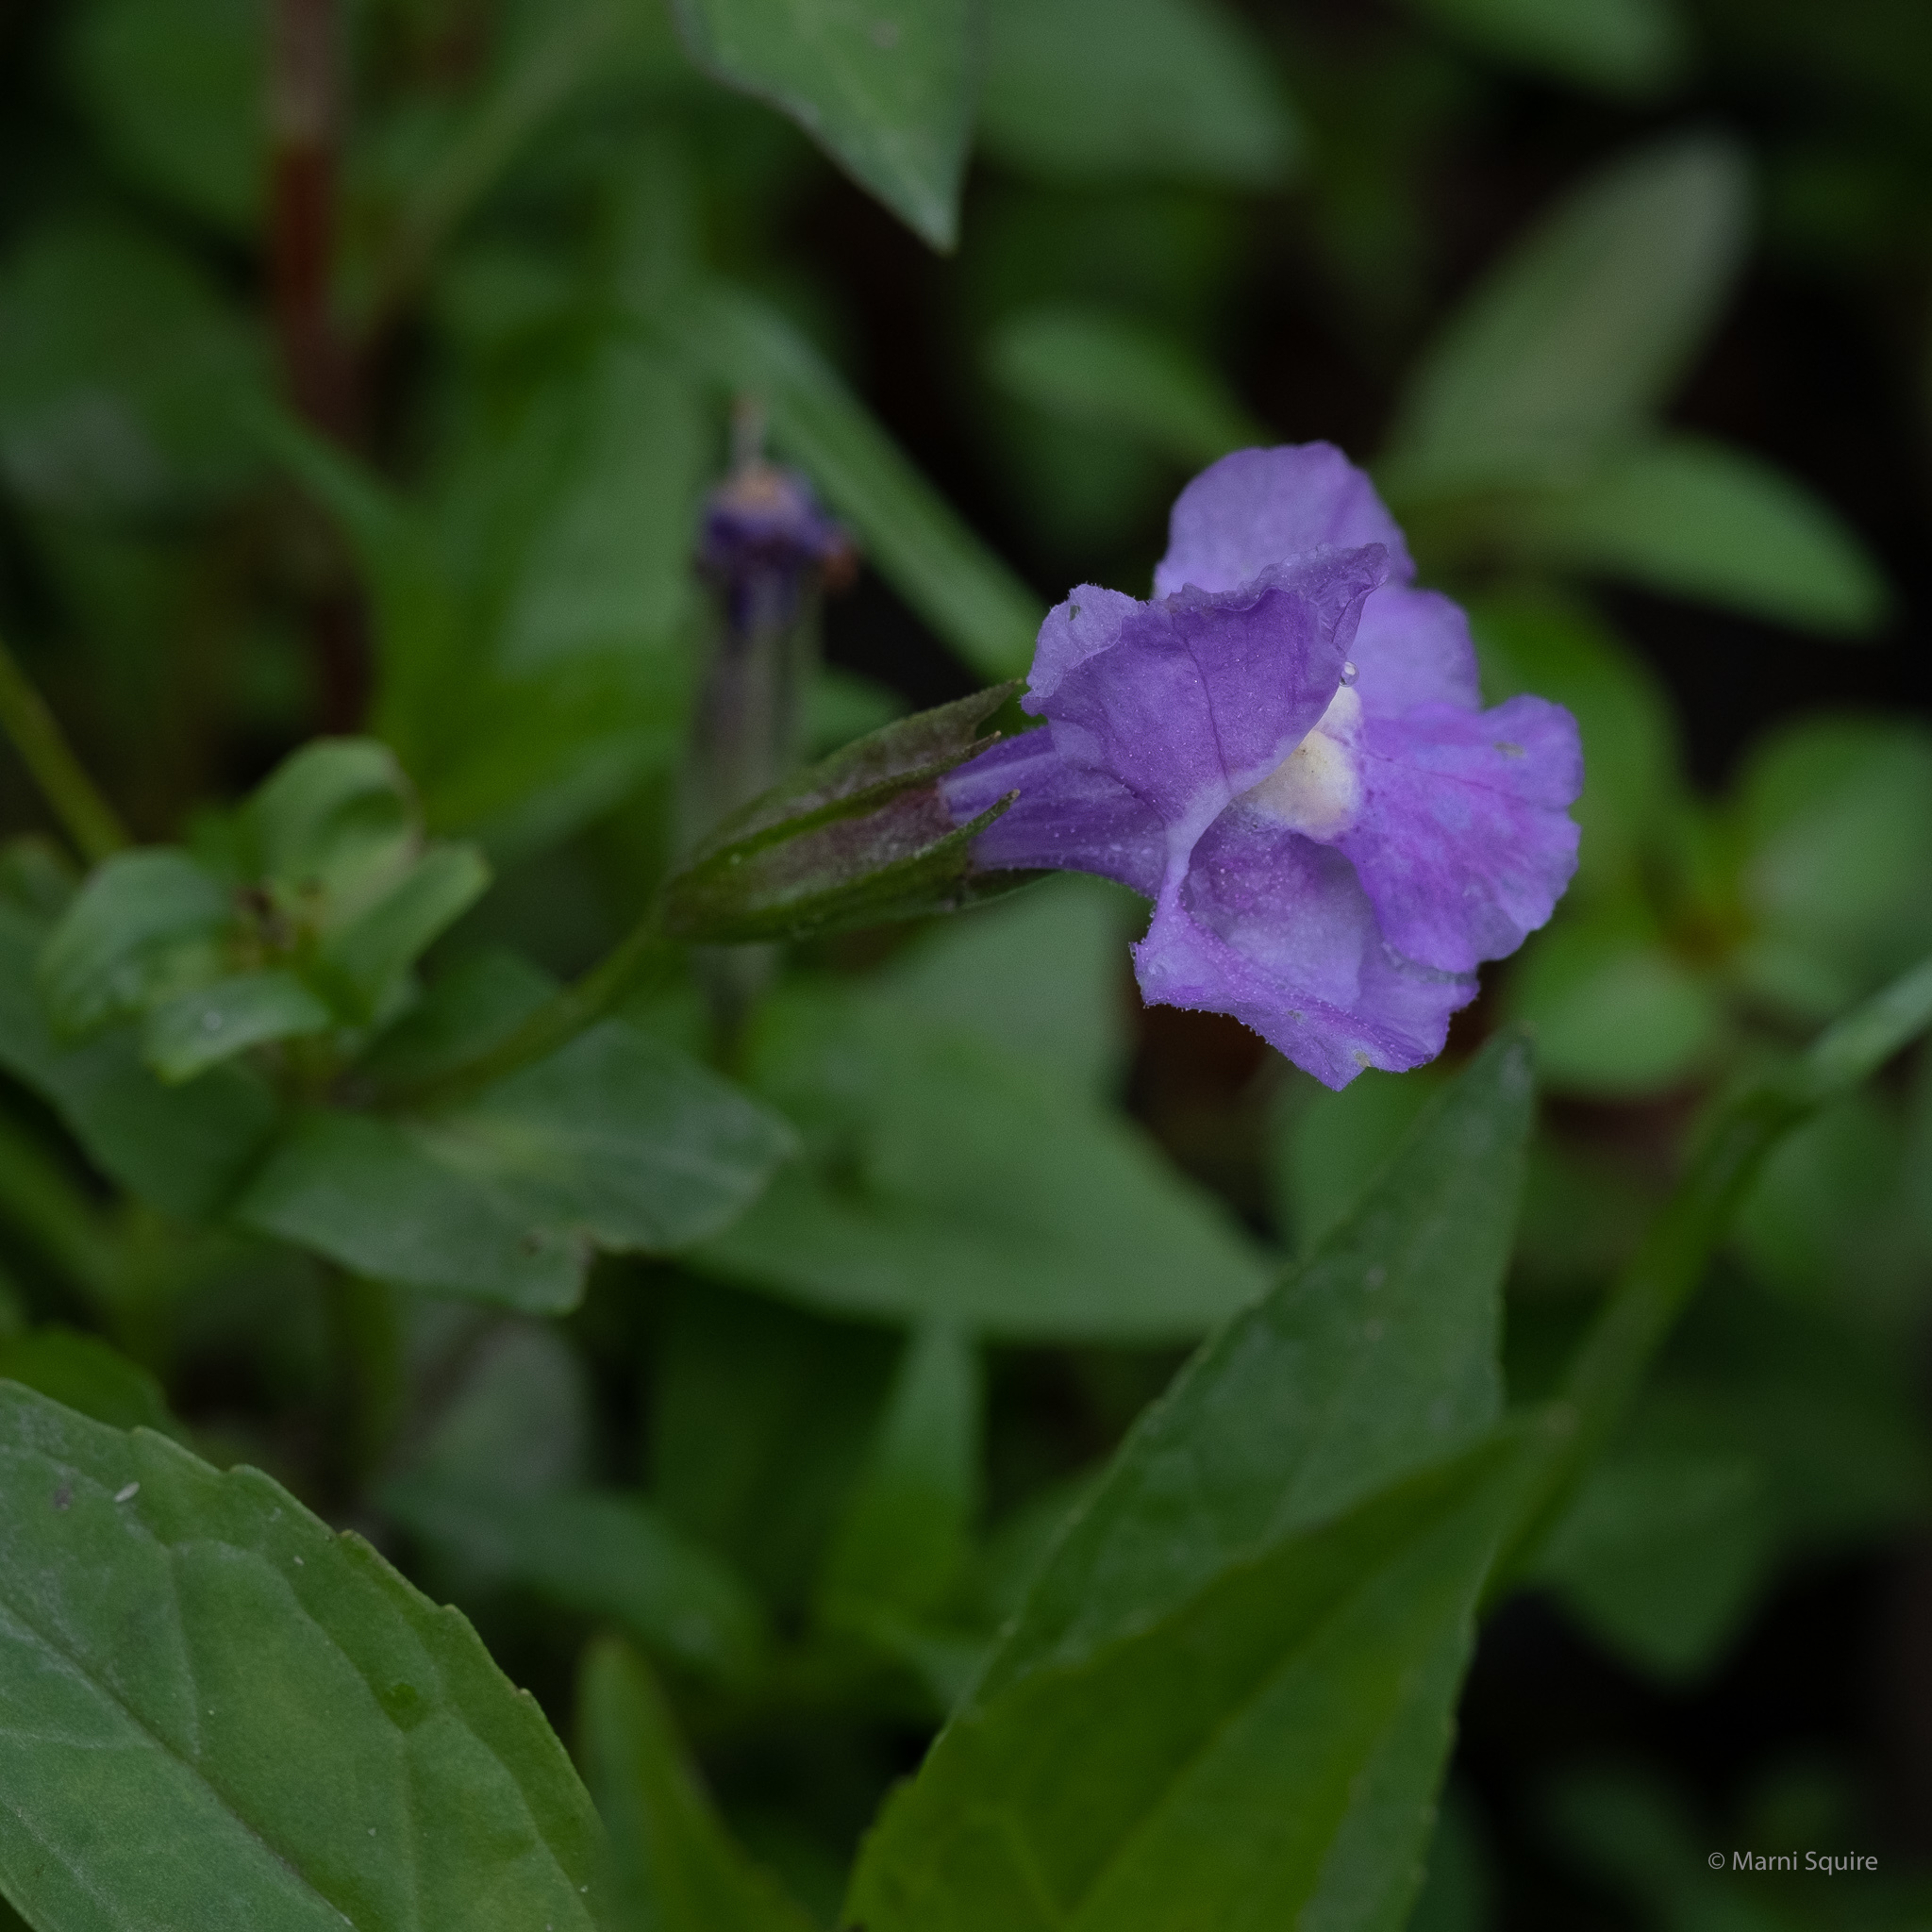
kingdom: Plantae
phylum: Tracheophyta
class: Magnoliopsida
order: Lamiales
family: Phrymaceae
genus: Mimulus
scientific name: Mimulus ringens
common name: Allegheny monkeyflower
